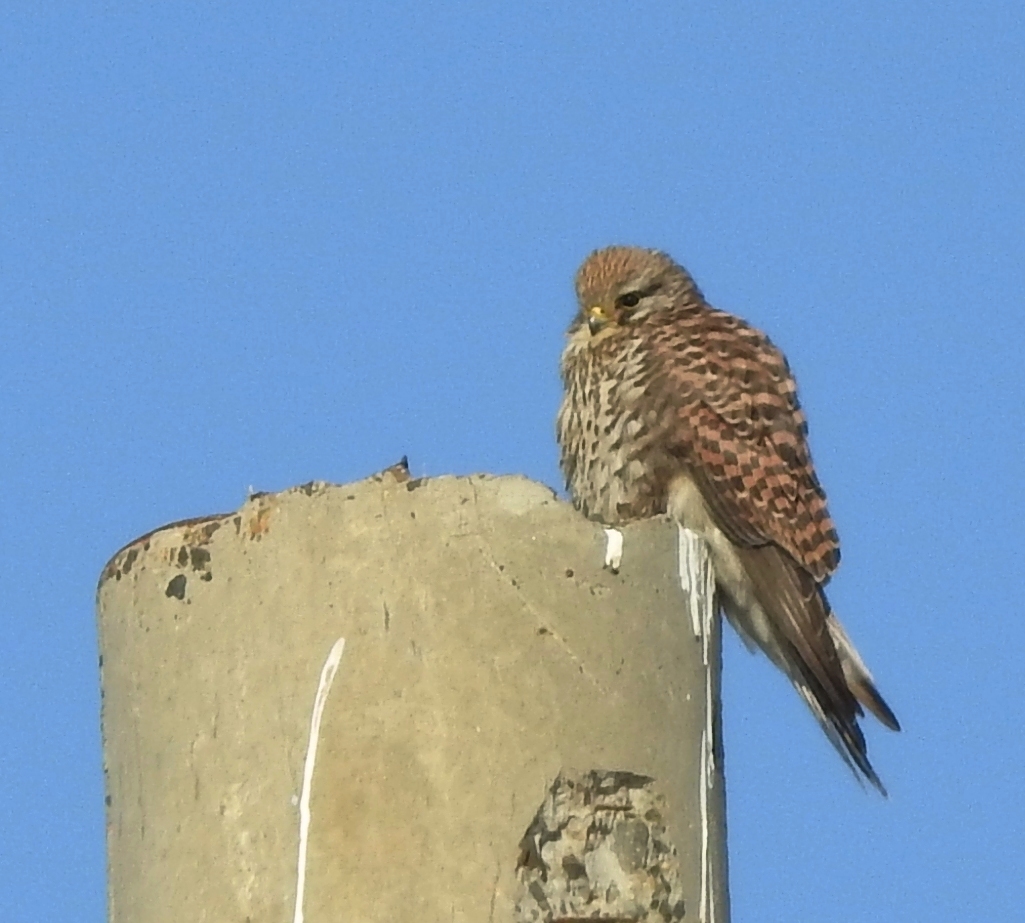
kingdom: Animalia
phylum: Chordata
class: Aves
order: Falconiformes
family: Falconidae
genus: Falco
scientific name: Falco tinnunculus
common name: Common kestrel
